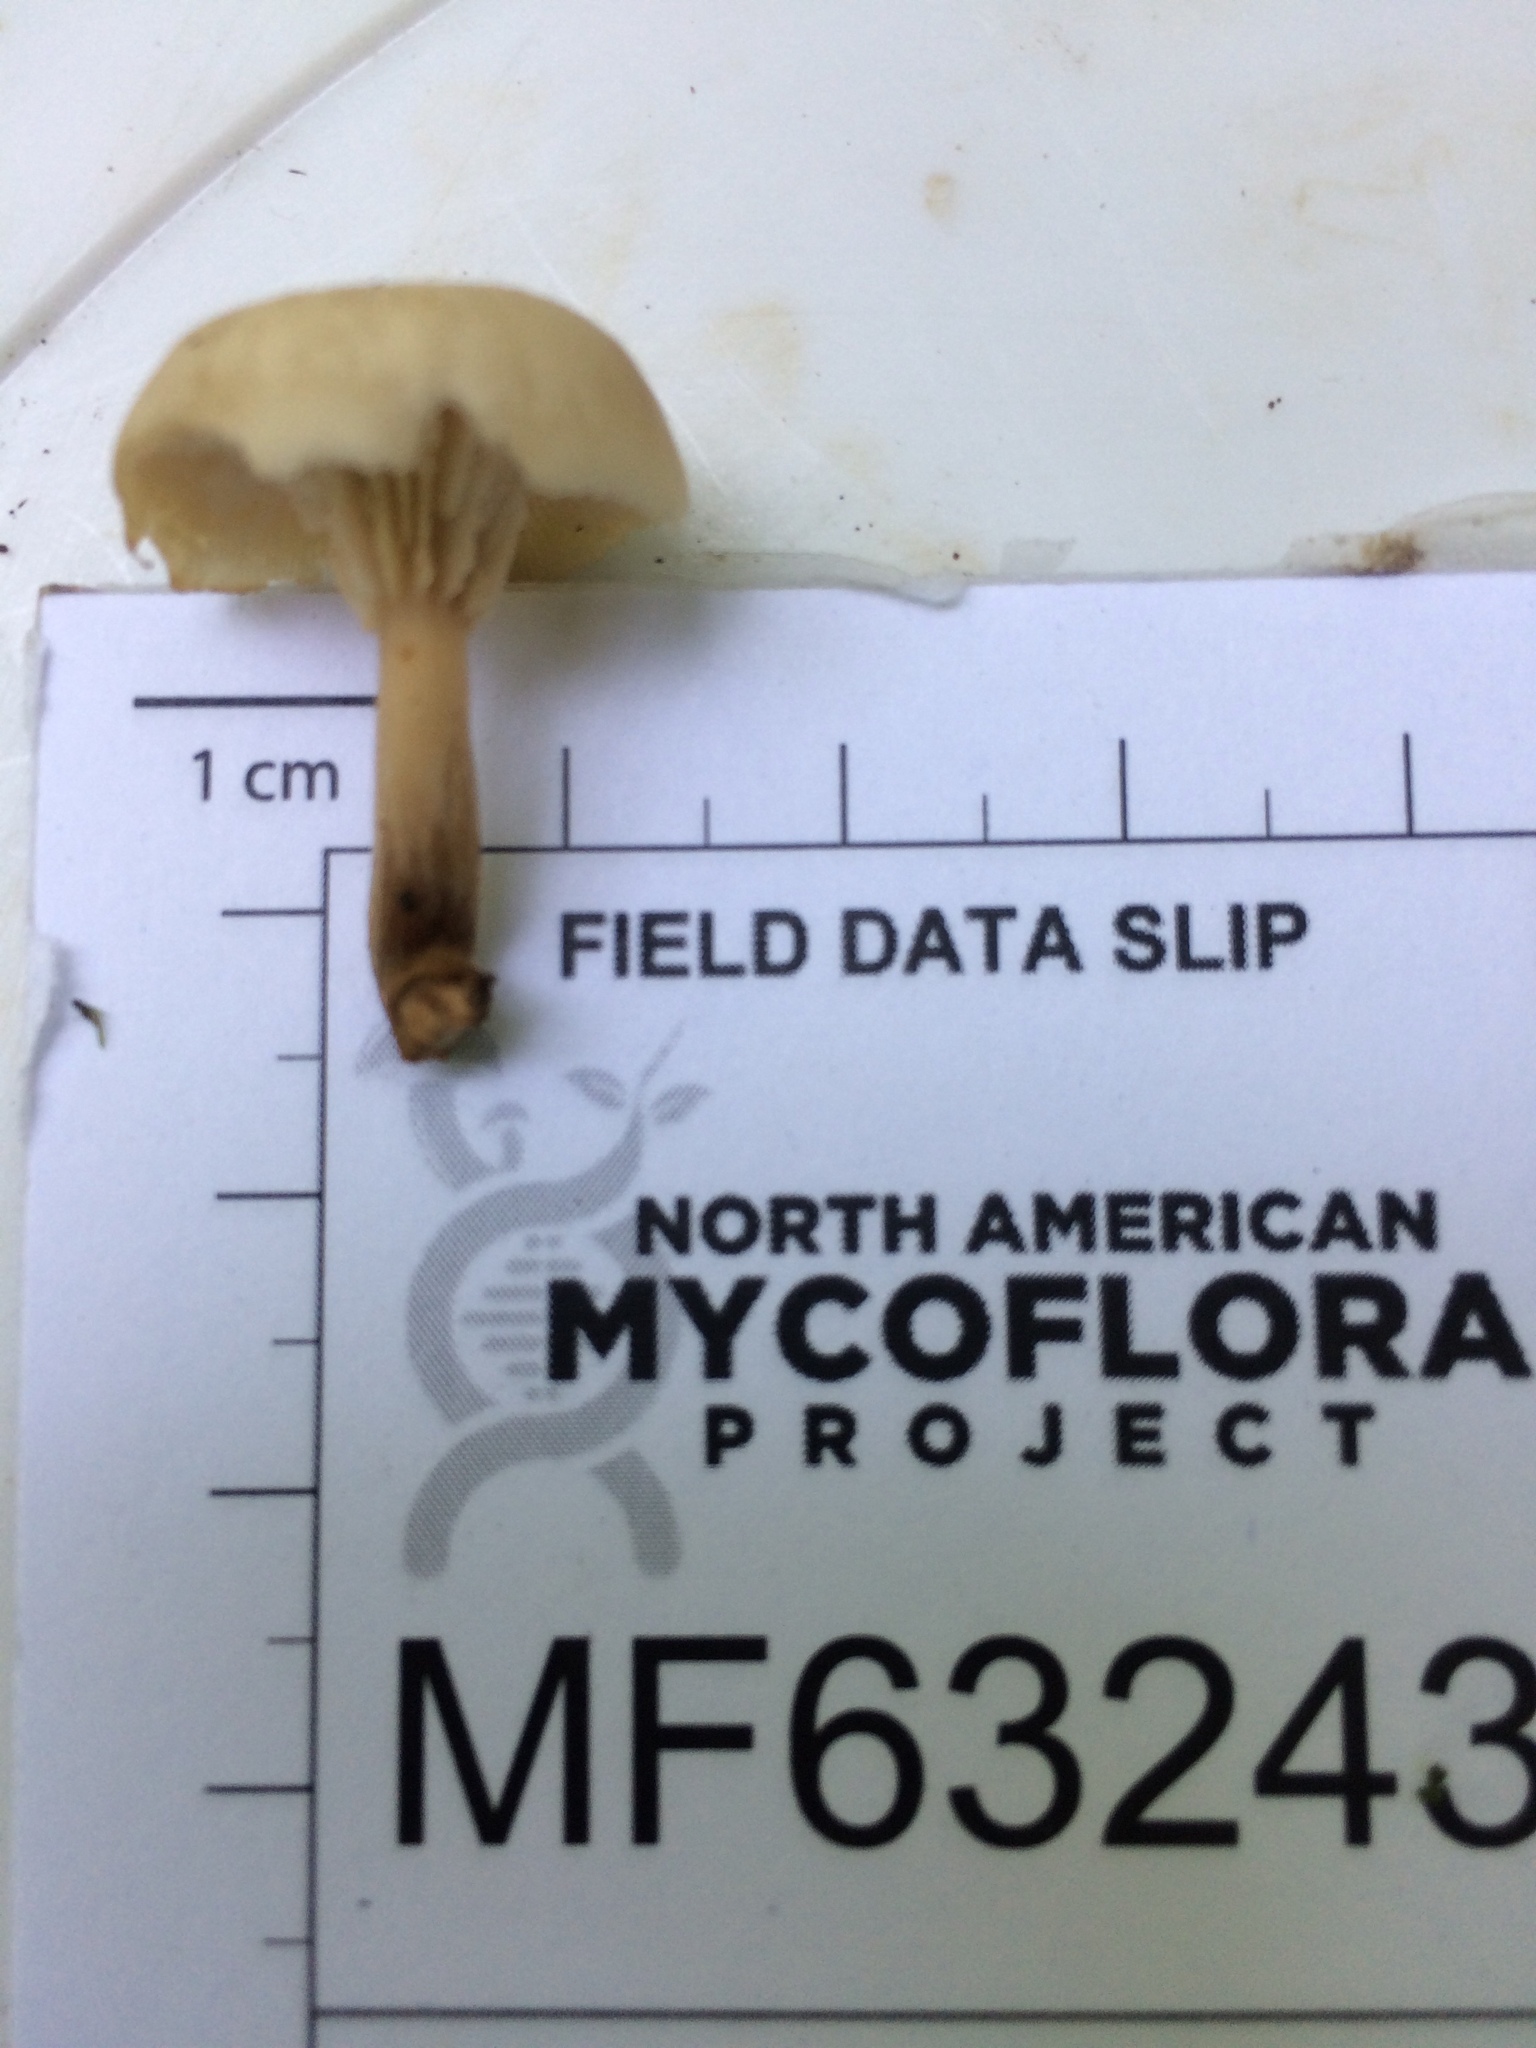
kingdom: Fungi
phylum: Basidiomycota
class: Agaricomycetes
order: Russulales
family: Auriscalpiaceae
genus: Lentinellus
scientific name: Lentinellus subaustralis
